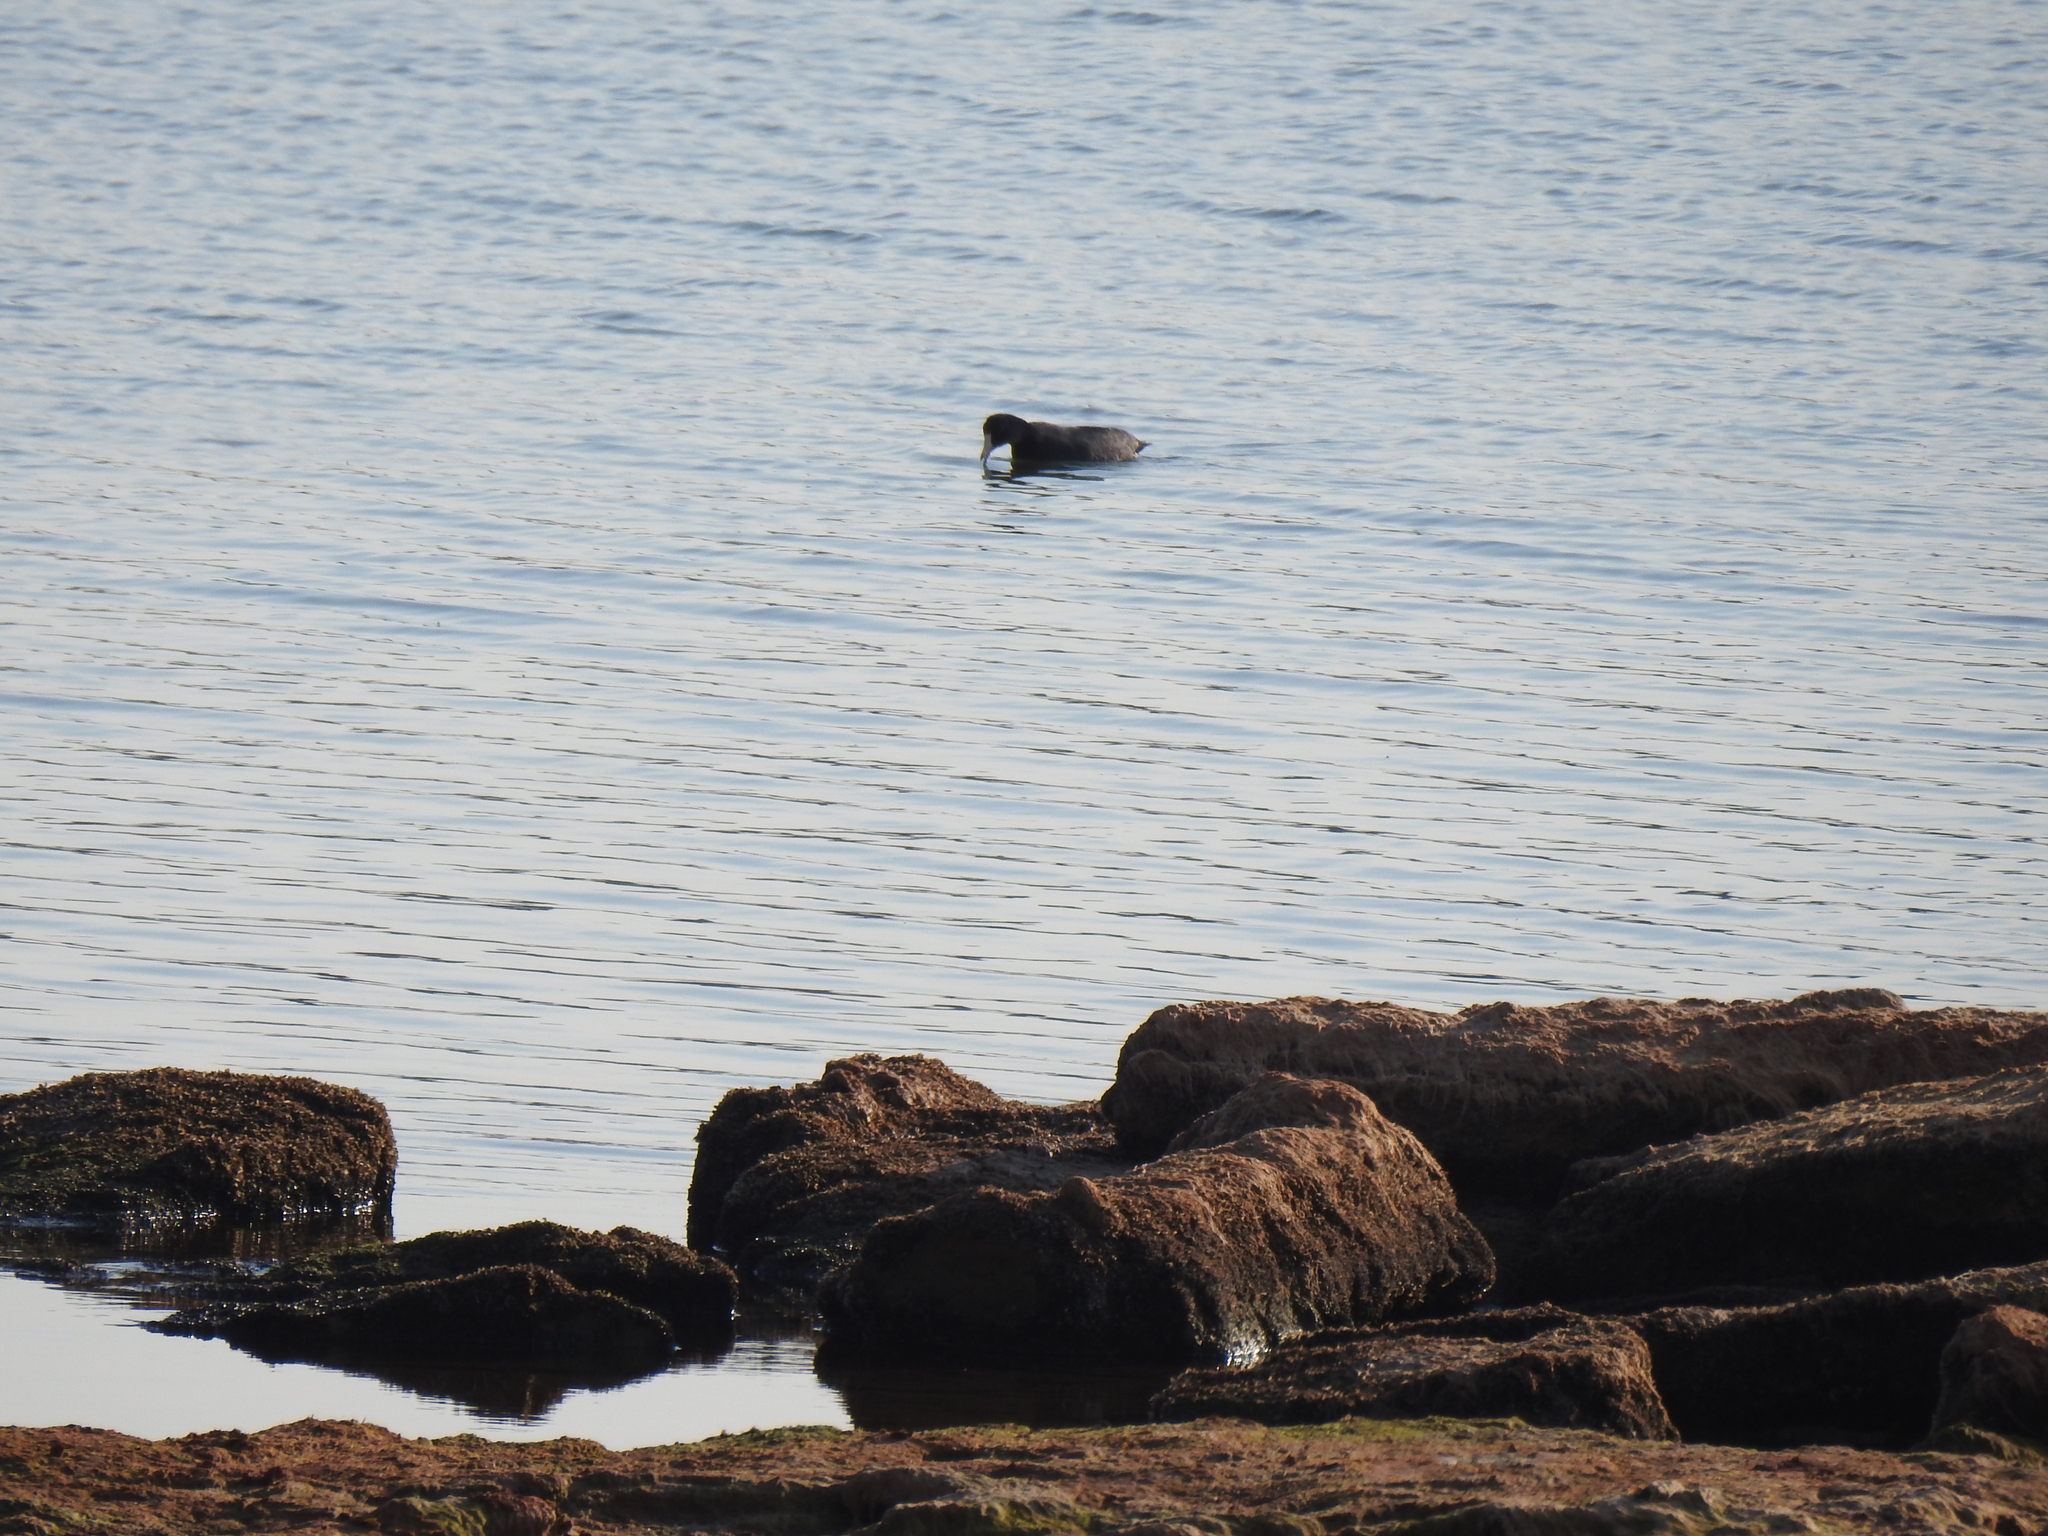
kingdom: Animalia
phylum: Chordata
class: Aves
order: Gruiformes
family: Rallidae
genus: Fulica
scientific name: Fulica americana
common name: American coot
